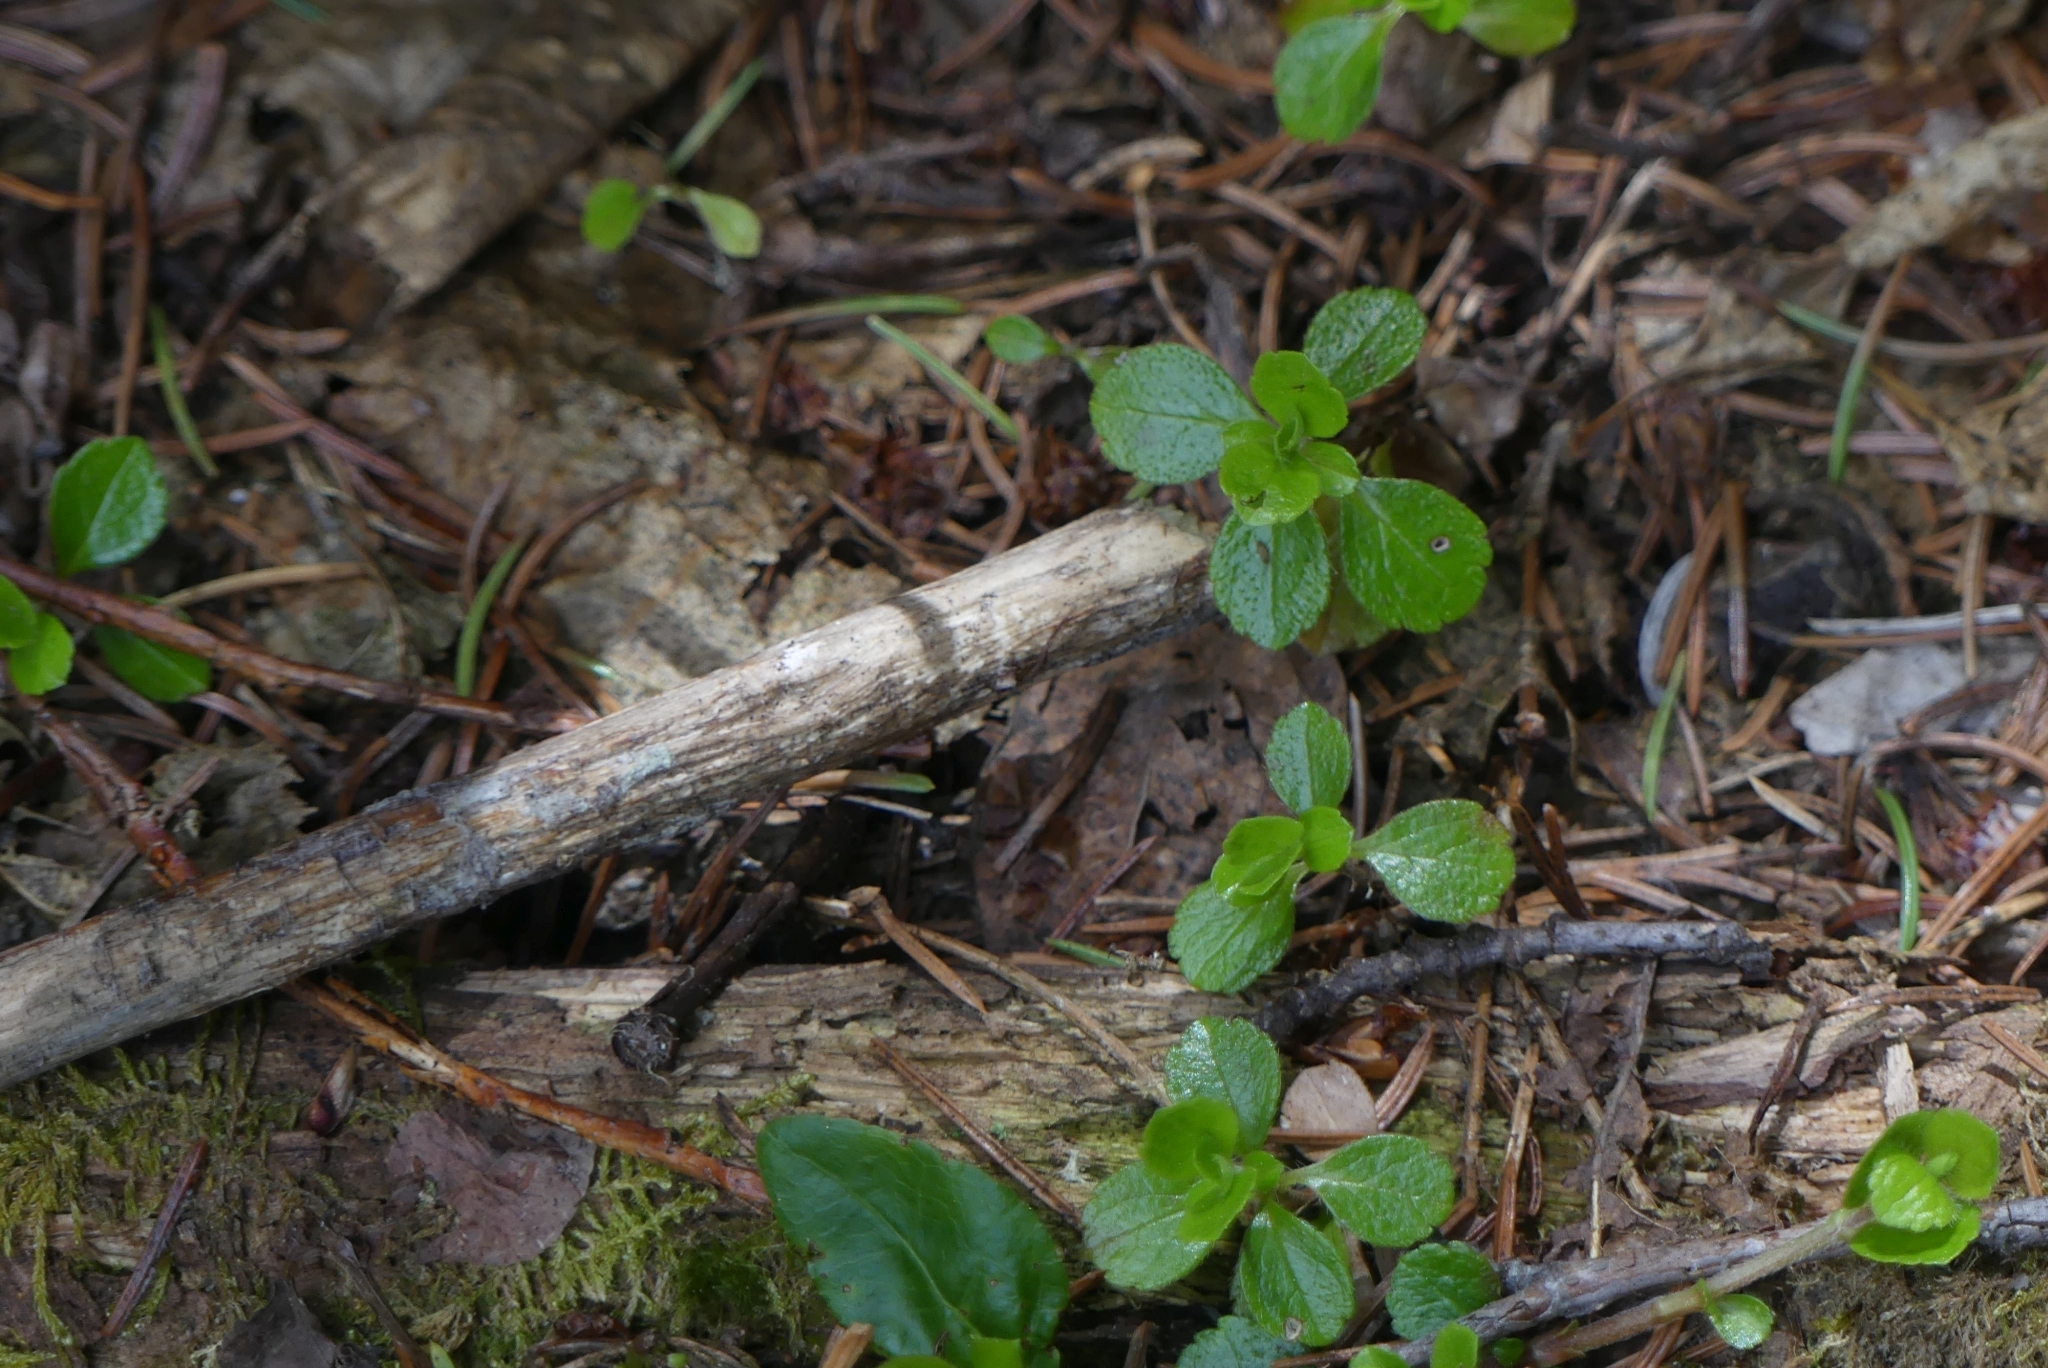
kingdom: Plantae
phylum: Tracheophyta
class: Magnoliopsida
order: Dipsacales
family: Caprifoliaceae
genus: Linnaea
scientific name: Linnaea borealis
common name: Twinflower
